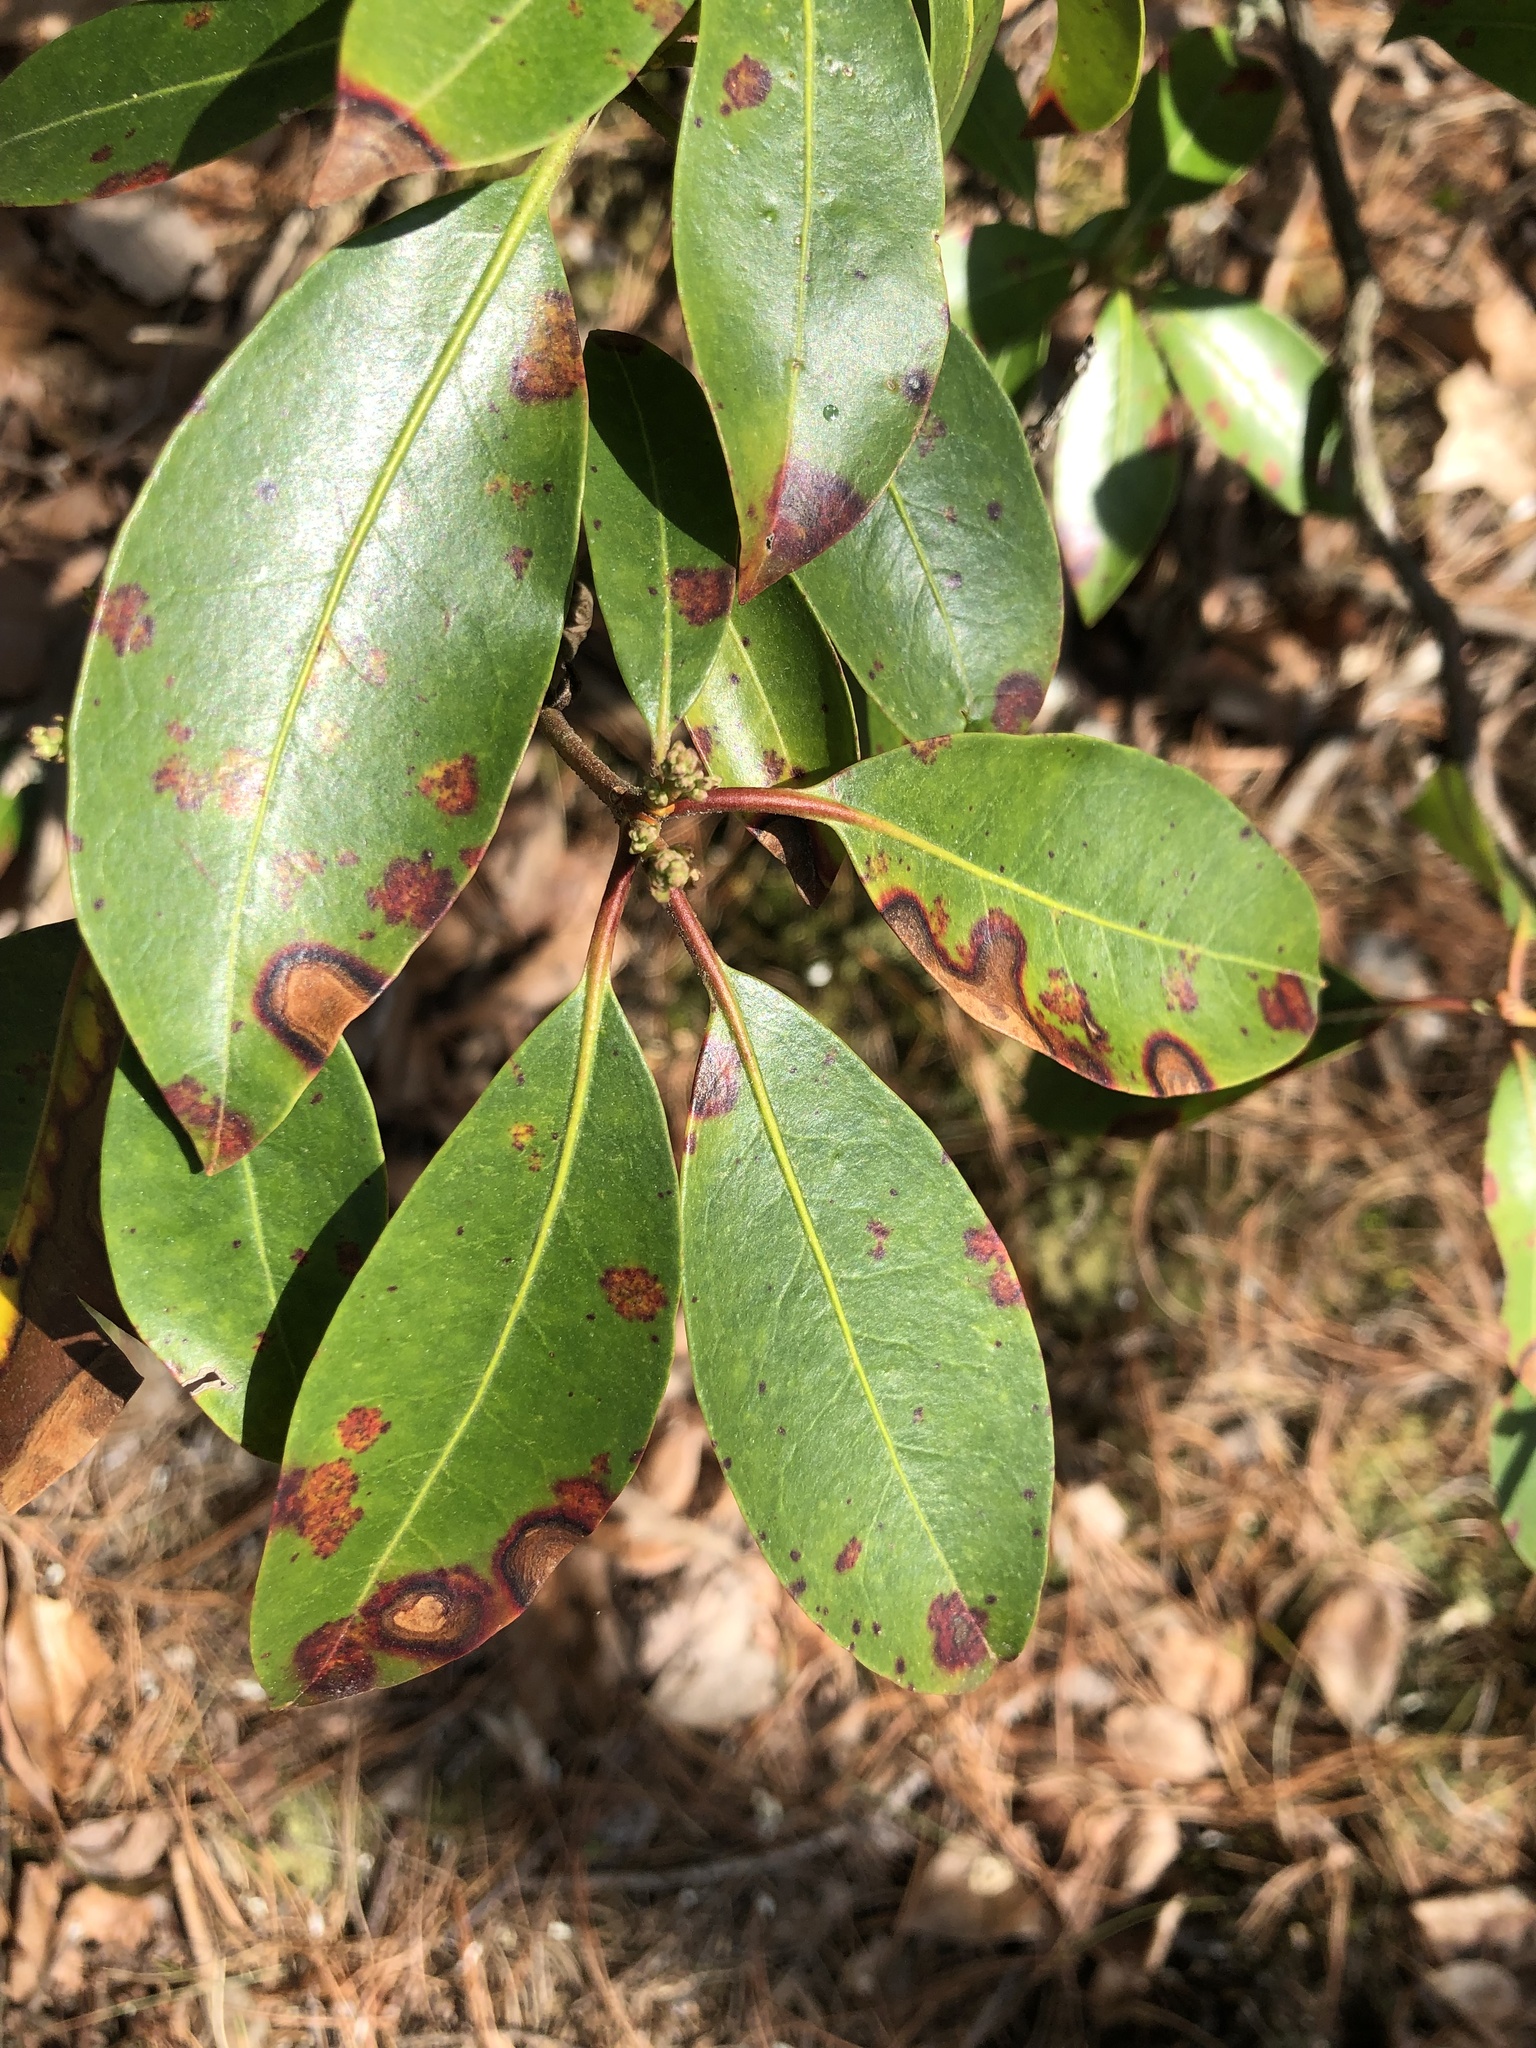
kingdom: Plantae
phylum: Tracheophyta
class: Magnoliopsida
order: Ericales
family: Ericaceae
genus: Kalmia
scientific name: Kalmia latifolia
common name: Mountain-laurel
